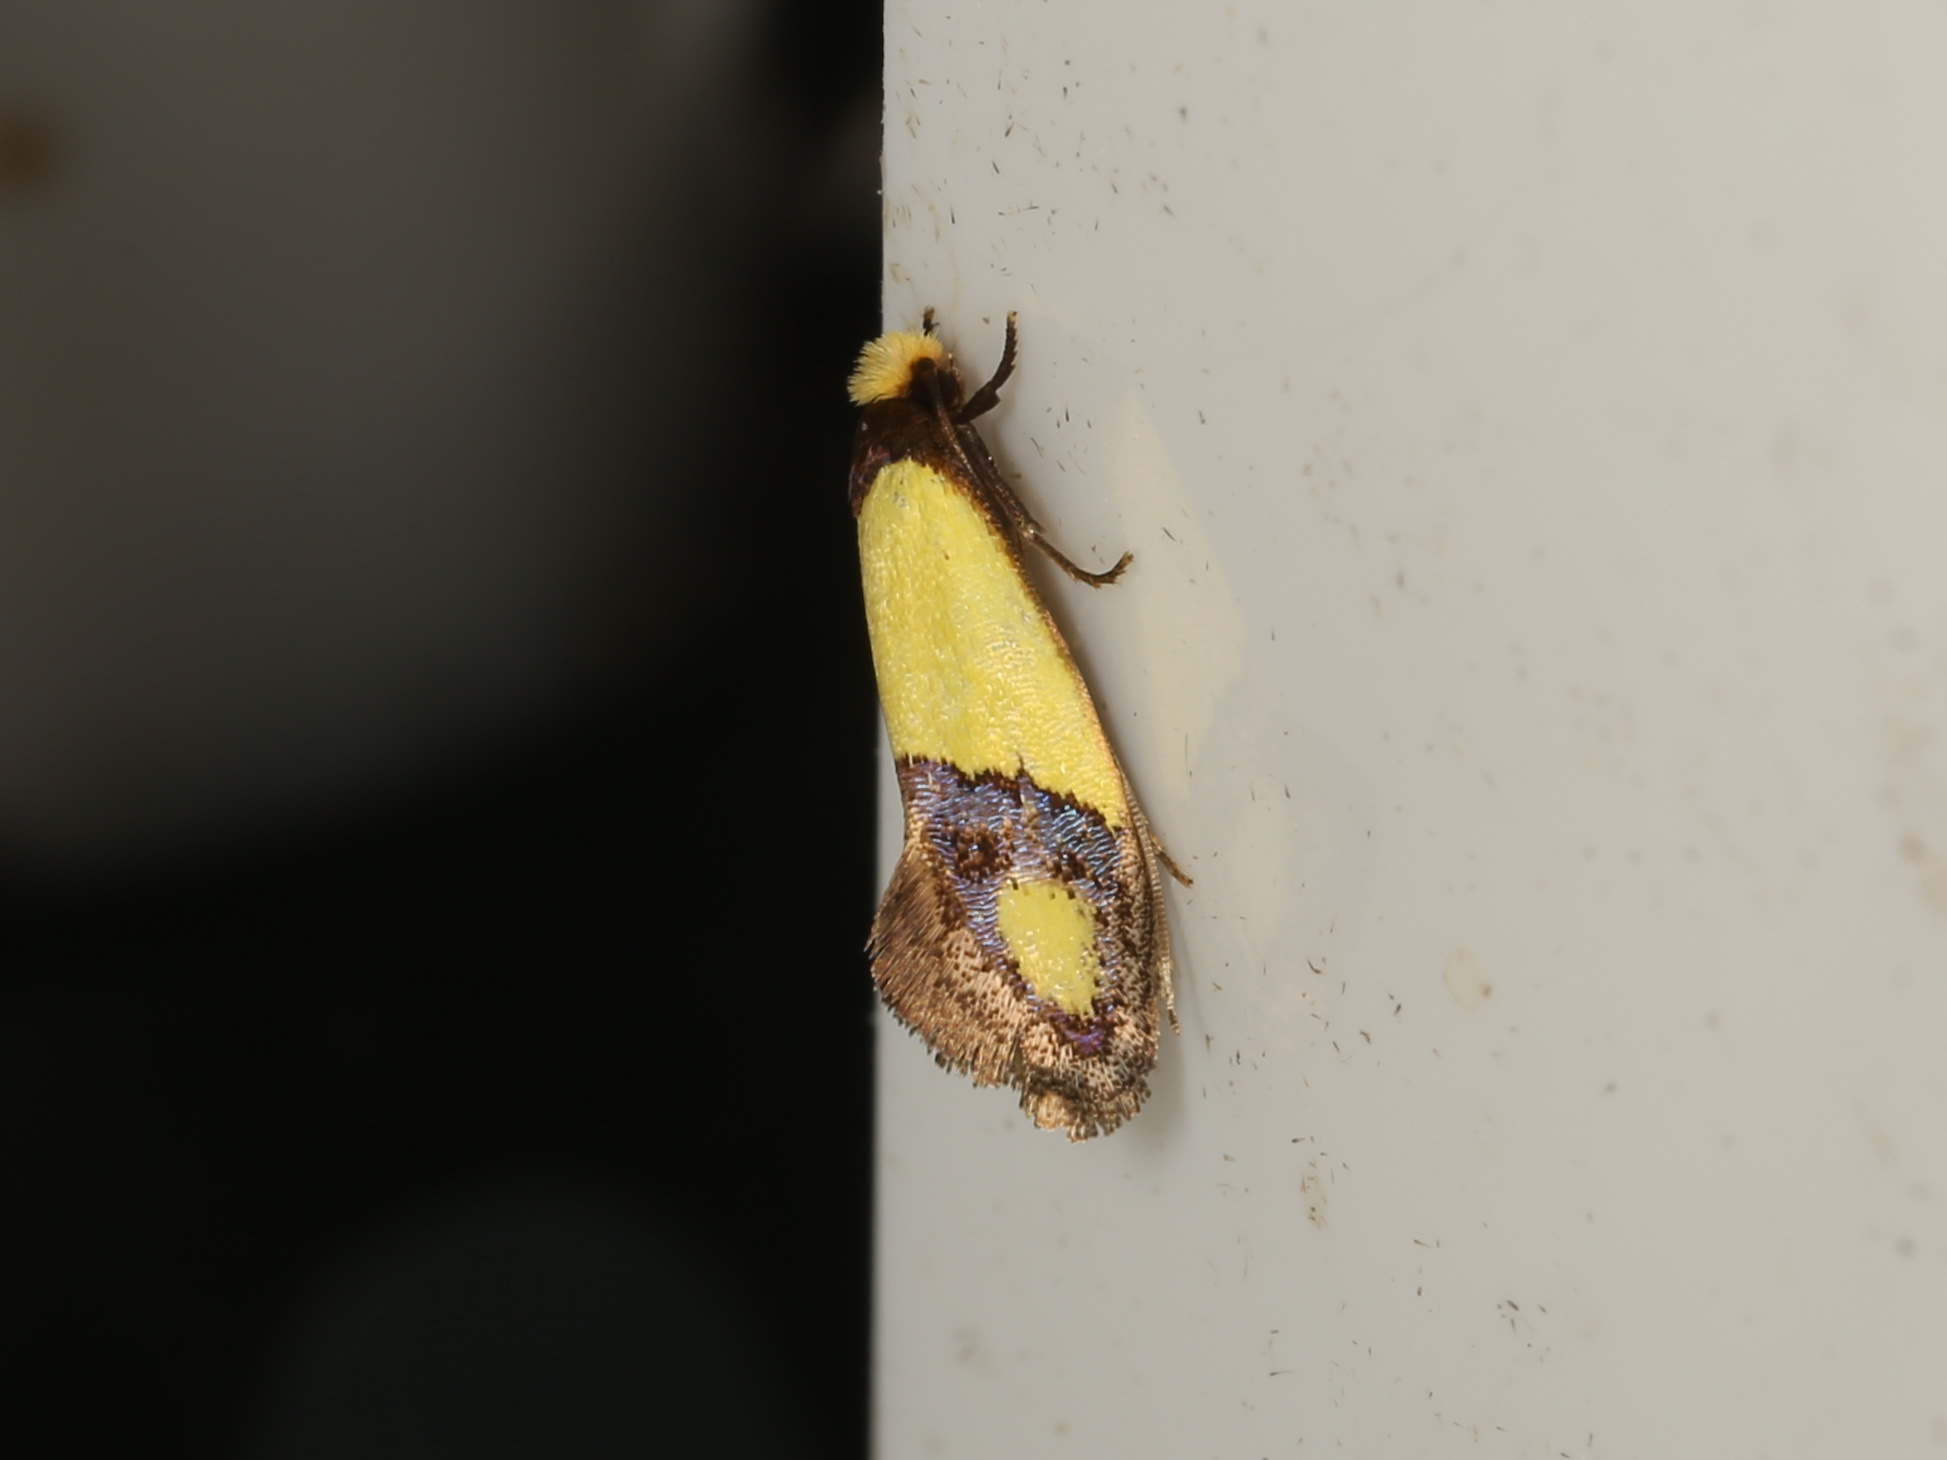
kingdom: Animalia
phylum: Arthropoda
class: Insecta
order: Lepidoptera
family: Tineidae
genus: Edosa
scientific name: Edosa fraudulens
